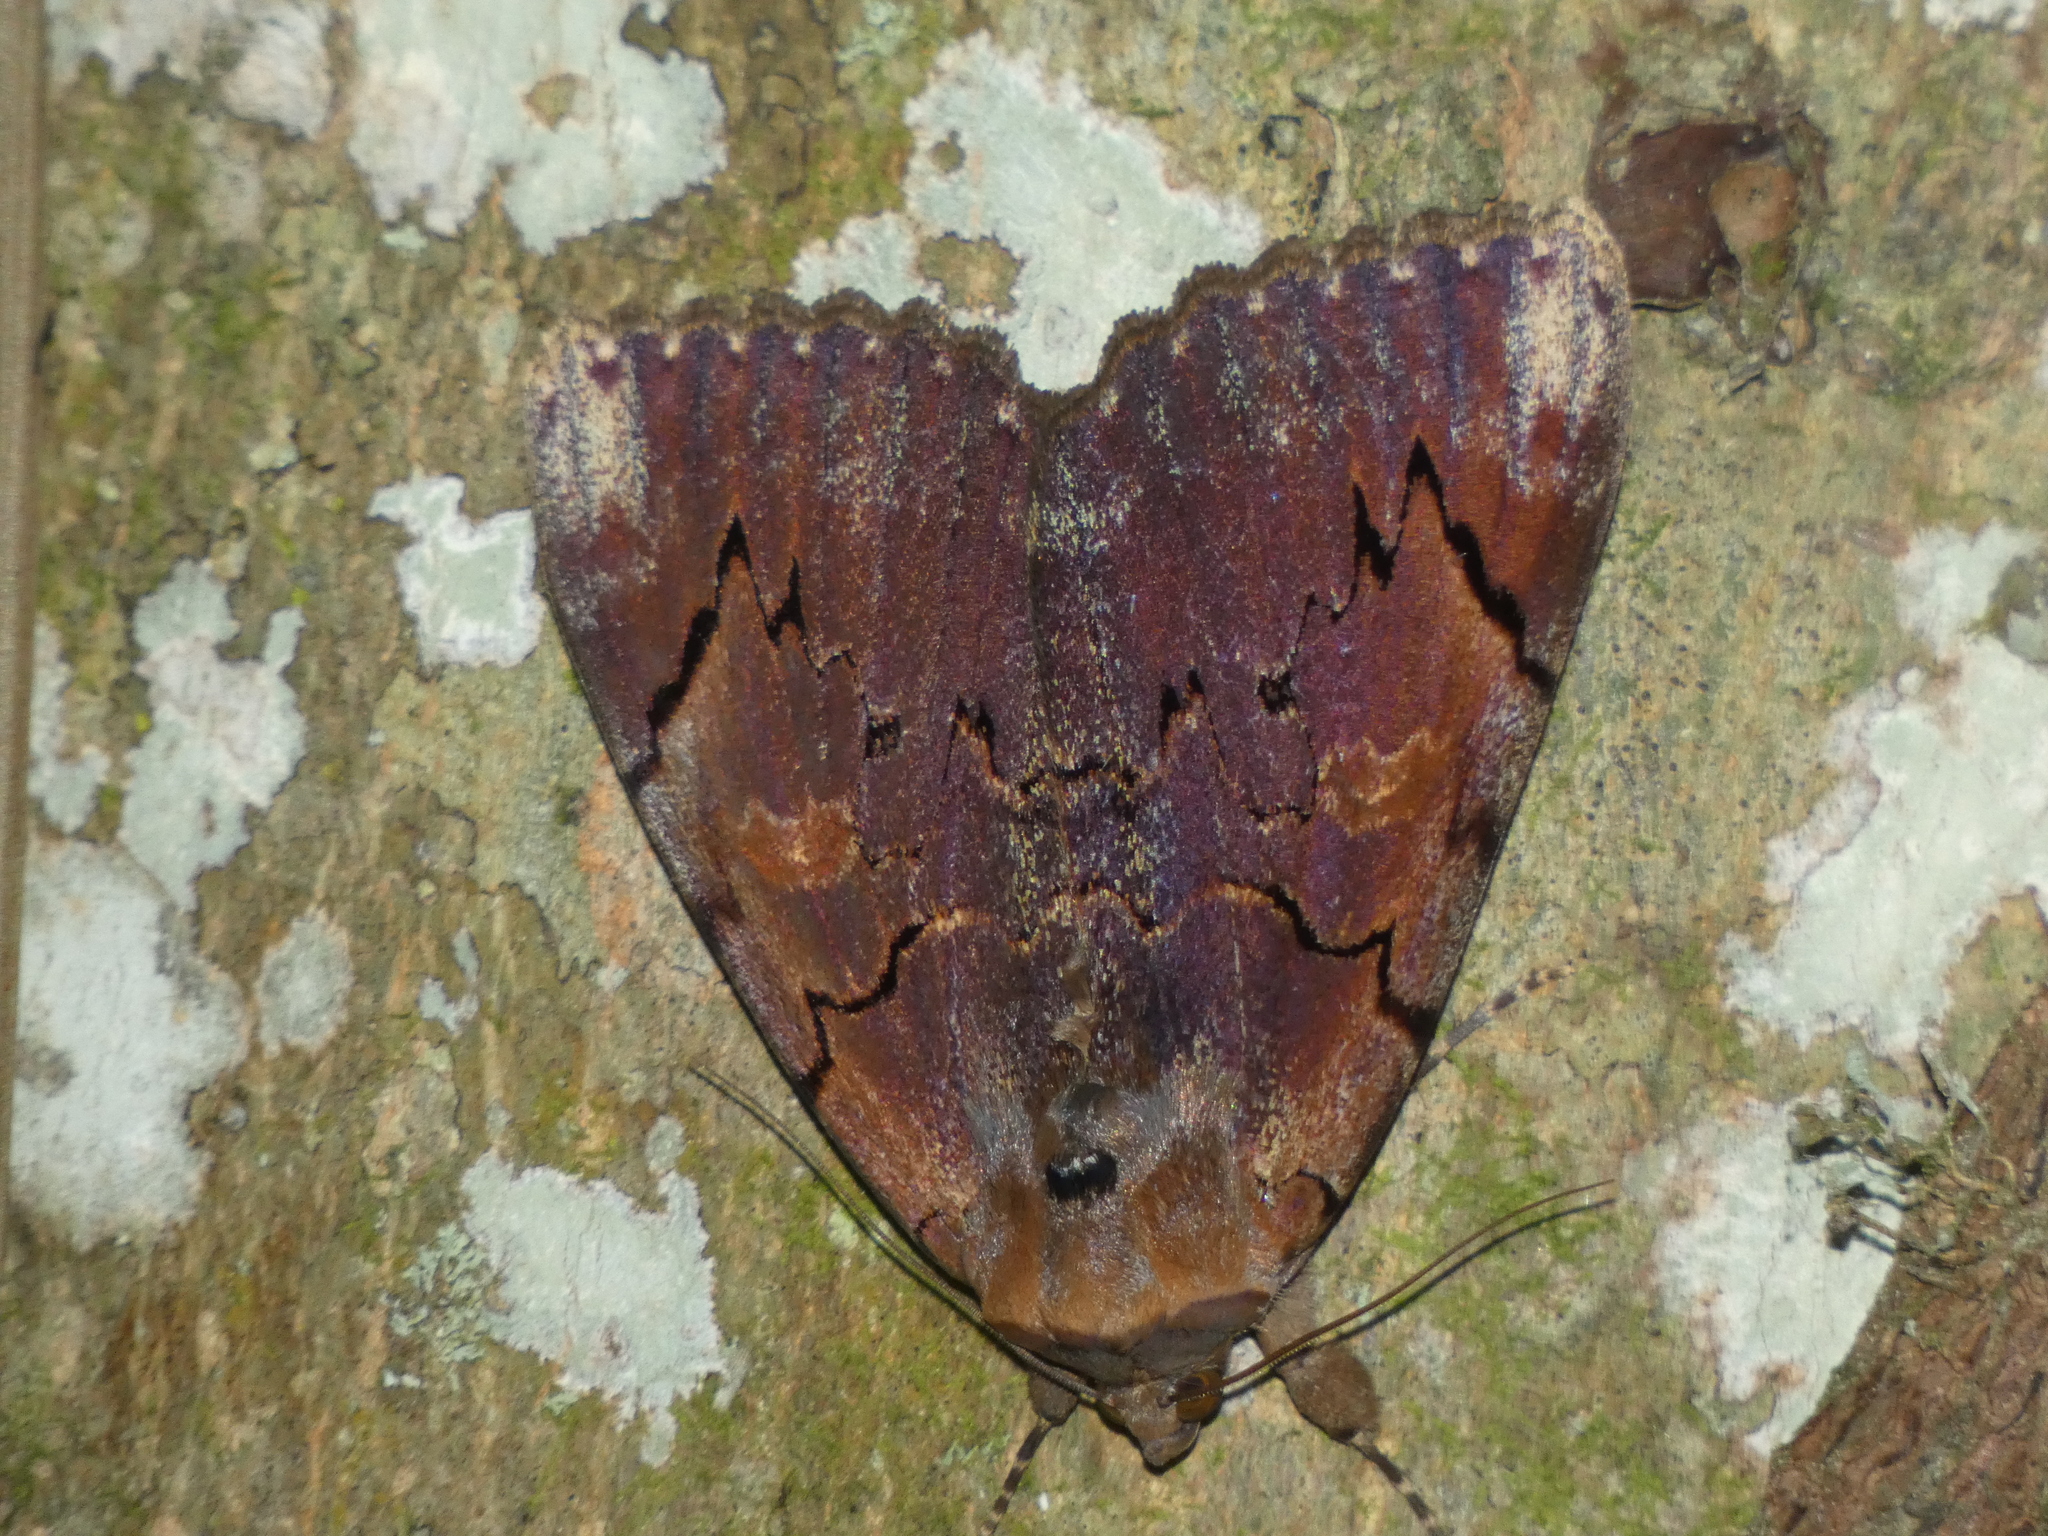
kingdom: Animalia
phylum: Arthropoda
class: Insecta
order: Lepidoptera
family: Erebidae
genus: Catocala
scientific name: Catocala carissima
